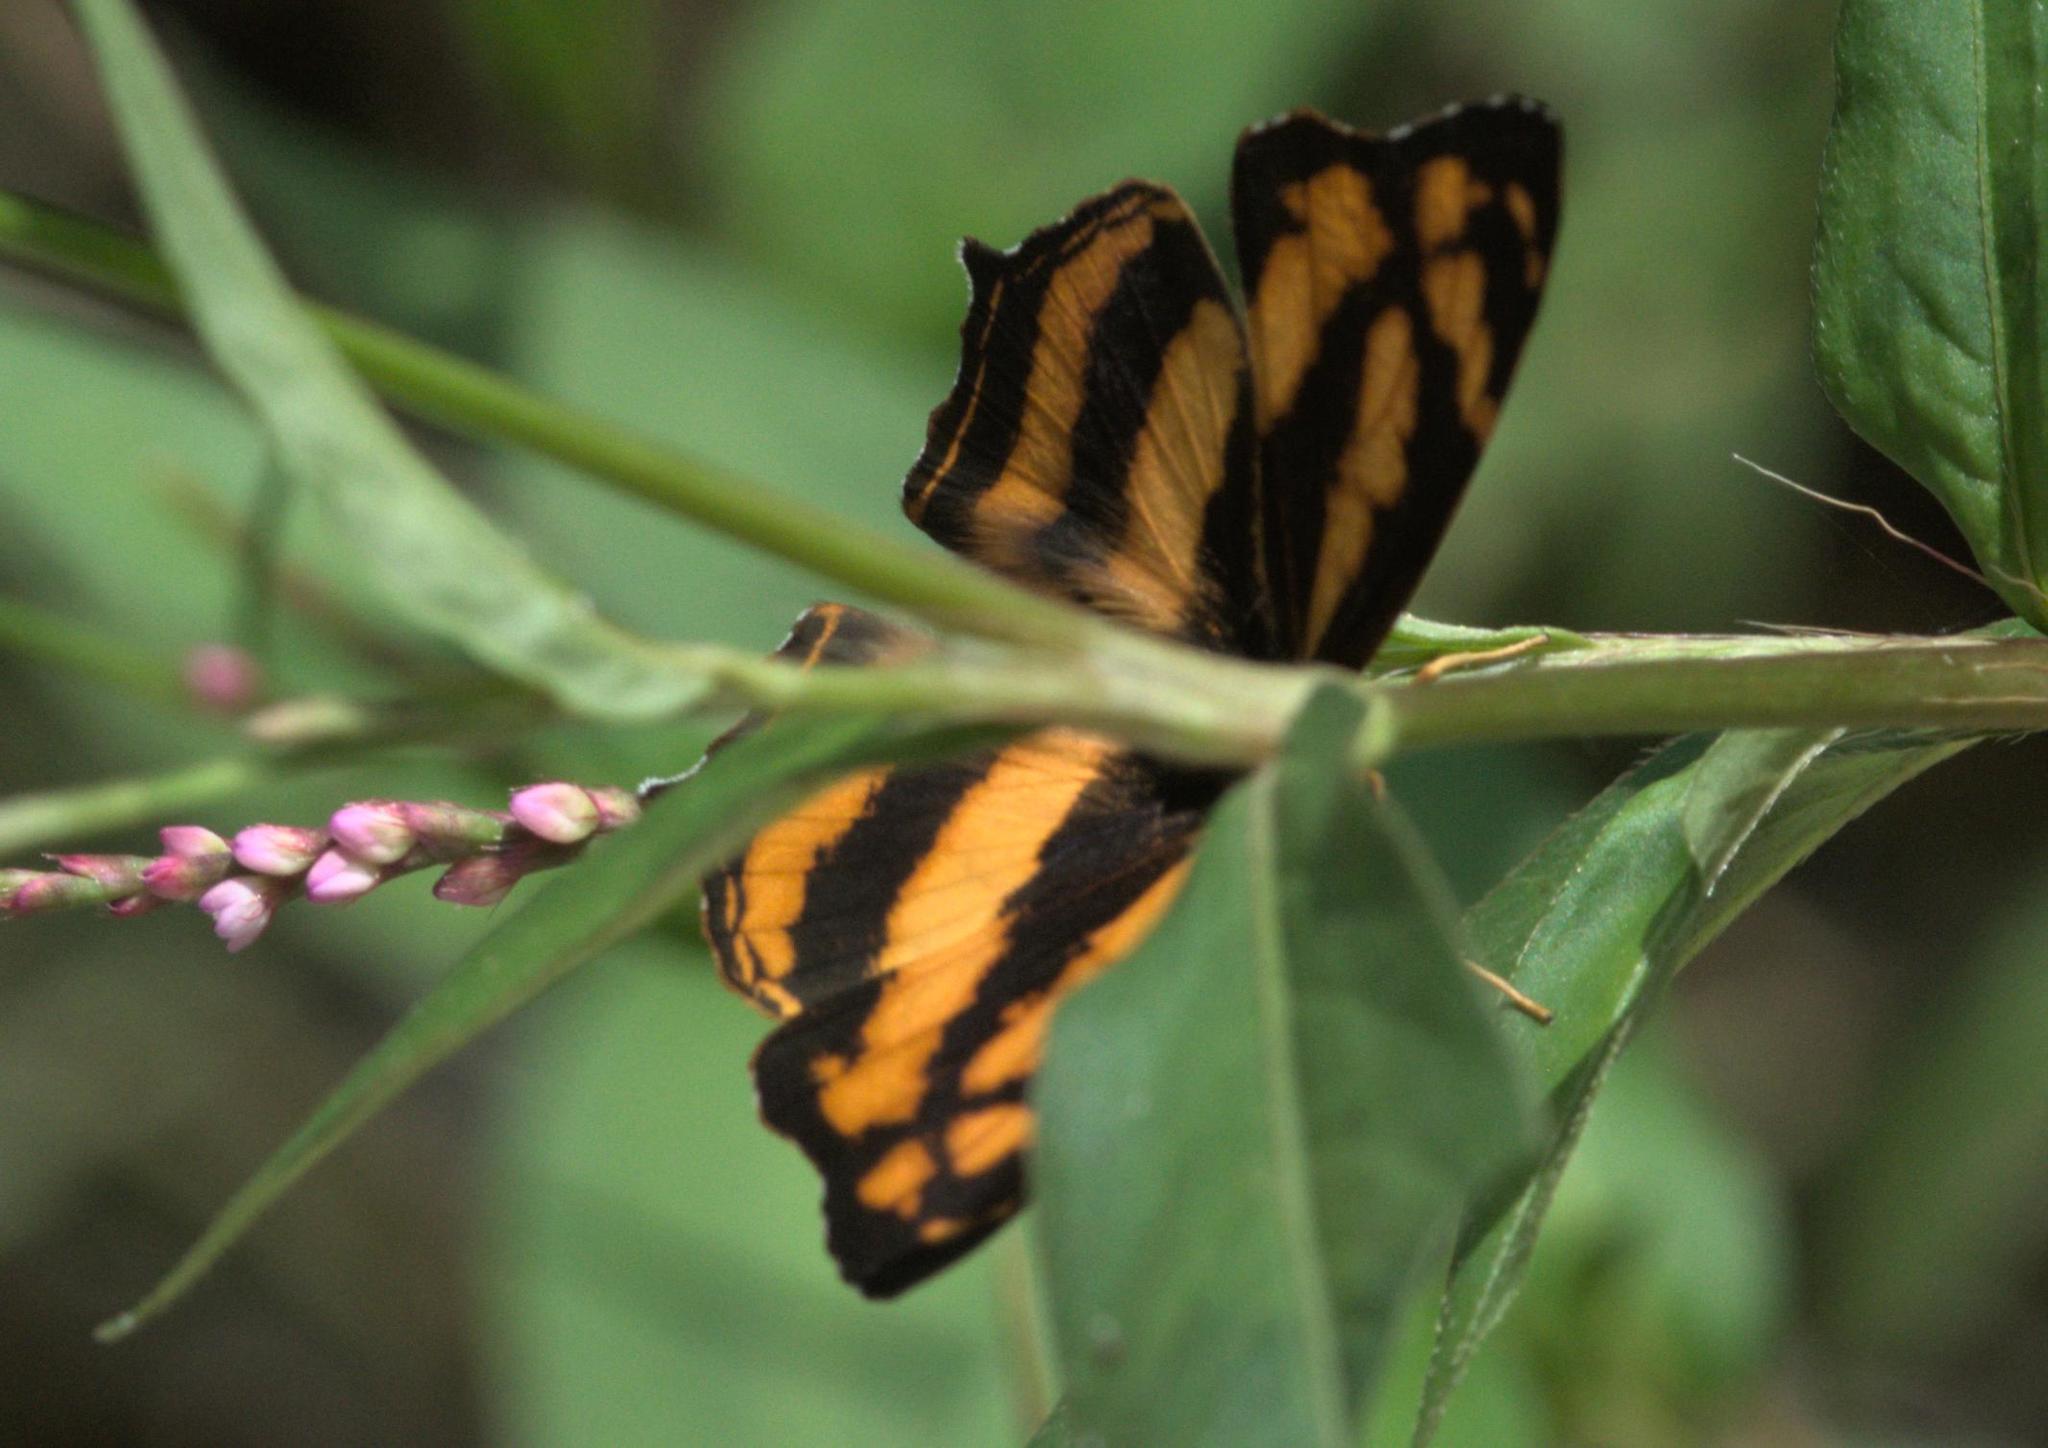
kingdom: Animalia
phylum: Arthropoda
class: Insecta
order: Lepidoptera
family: Nymphalidae
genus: Symbrenthia
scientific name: Symbrenthia hypselis
